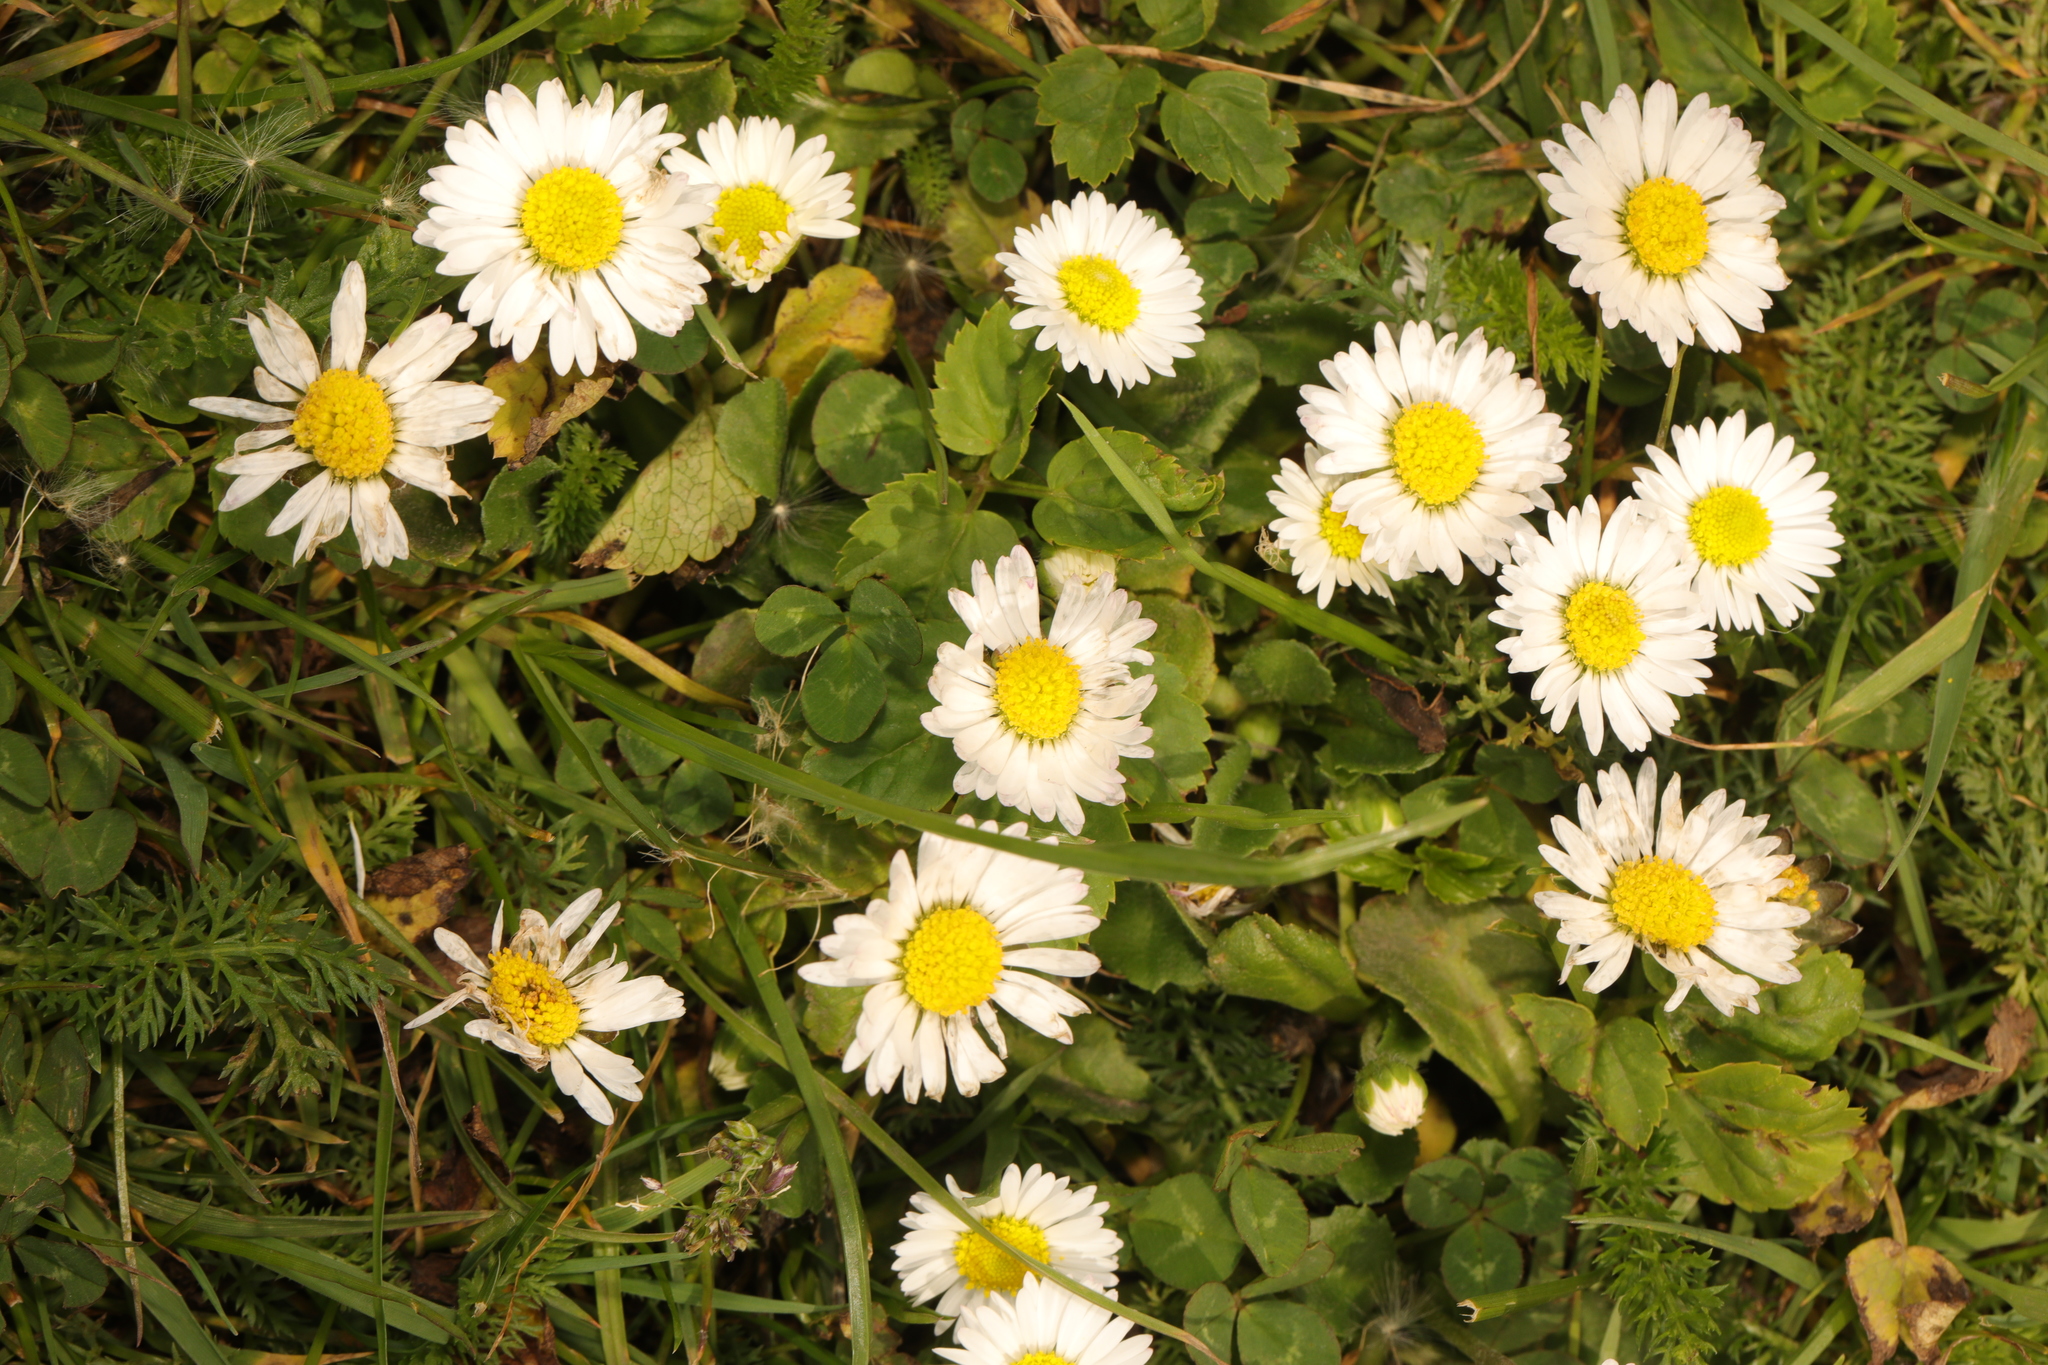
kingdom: Plantae
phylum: Tracheophyta
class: Magnoliopsida
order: Asterales
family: Asteraceae
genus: Bellis
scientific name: Bellis perennis
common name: Lawndaisy
